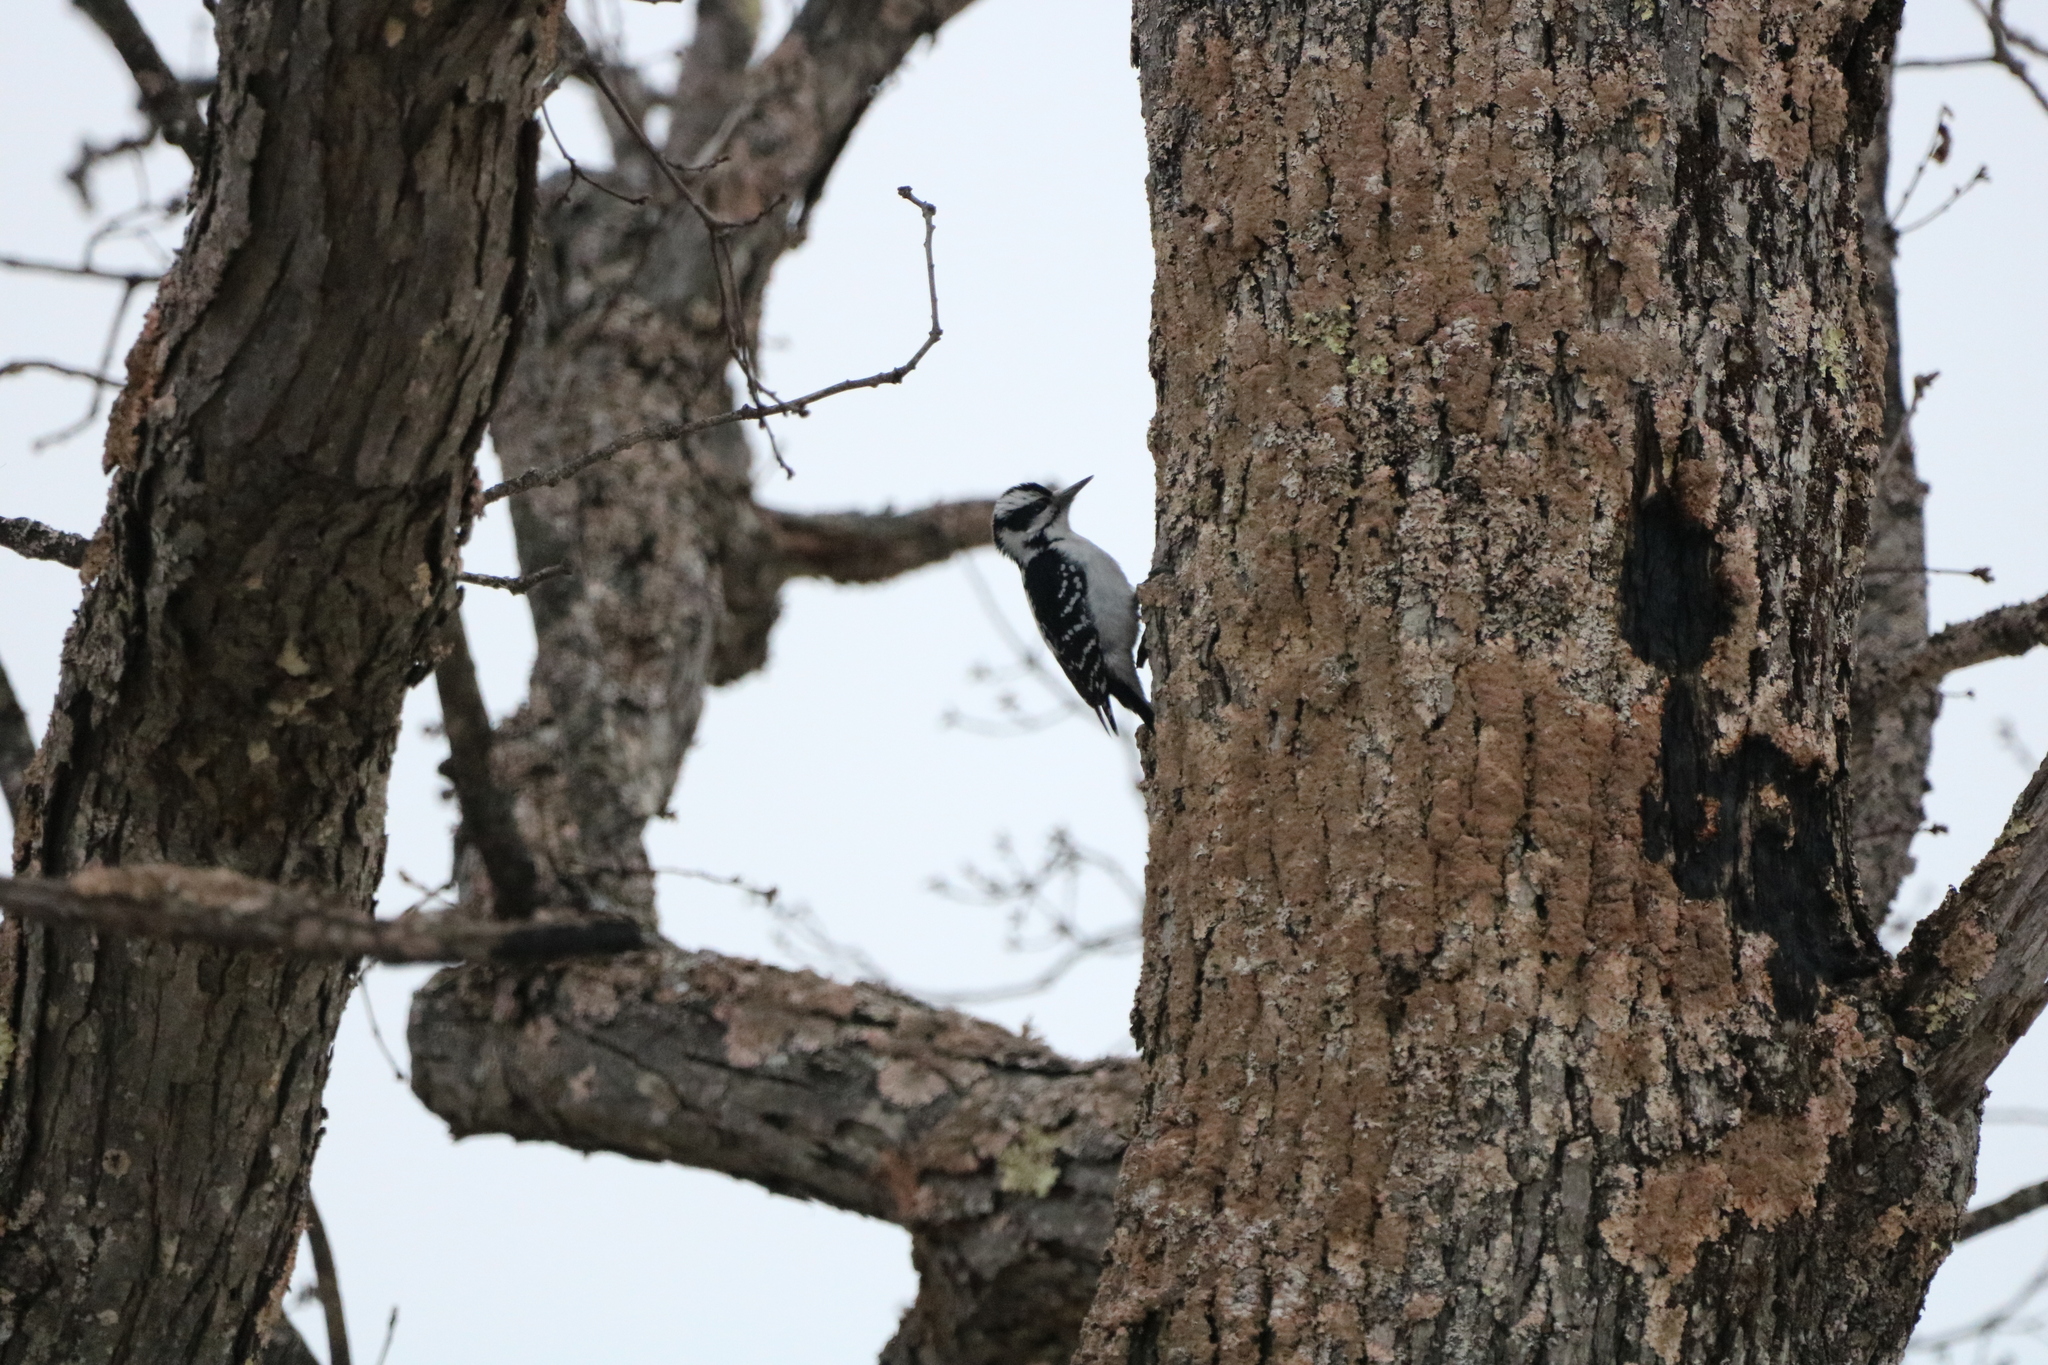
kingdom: Animalia
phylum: Chordata
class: Aves
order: Piciformes
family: Picidae
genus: Leuconotopicus
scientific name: Leuconotopicus villosus
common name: Hairy woodpecker
